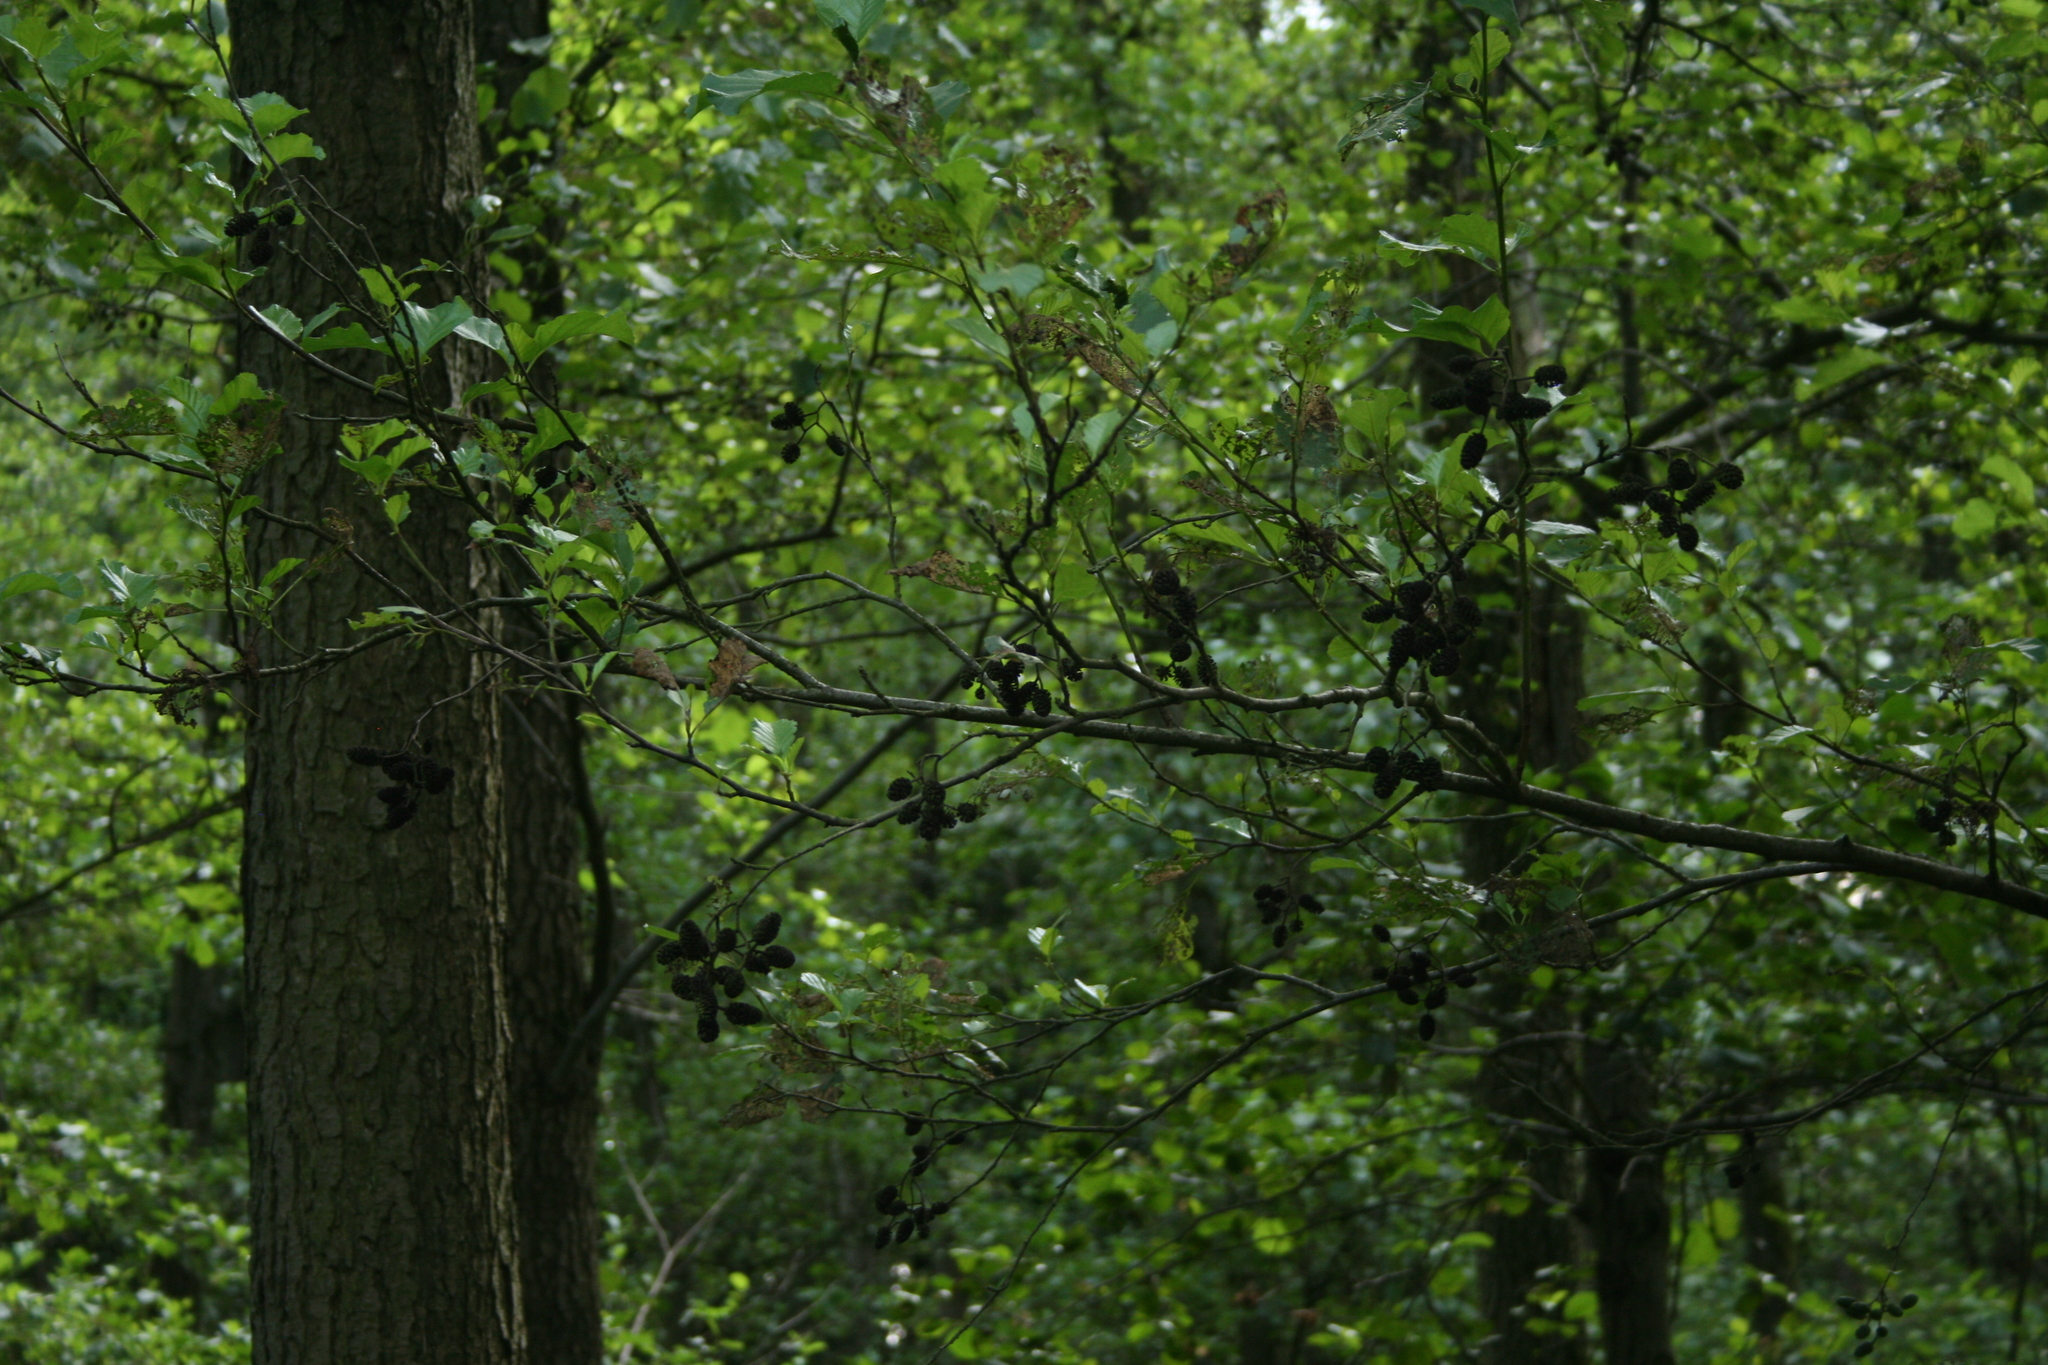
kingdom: Plantae
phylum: Tracheophyta
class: Magnoliopsida
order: Fagales
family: Betulaceae
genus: Alnus
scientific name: Alnus glutinosa
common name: Black alder
